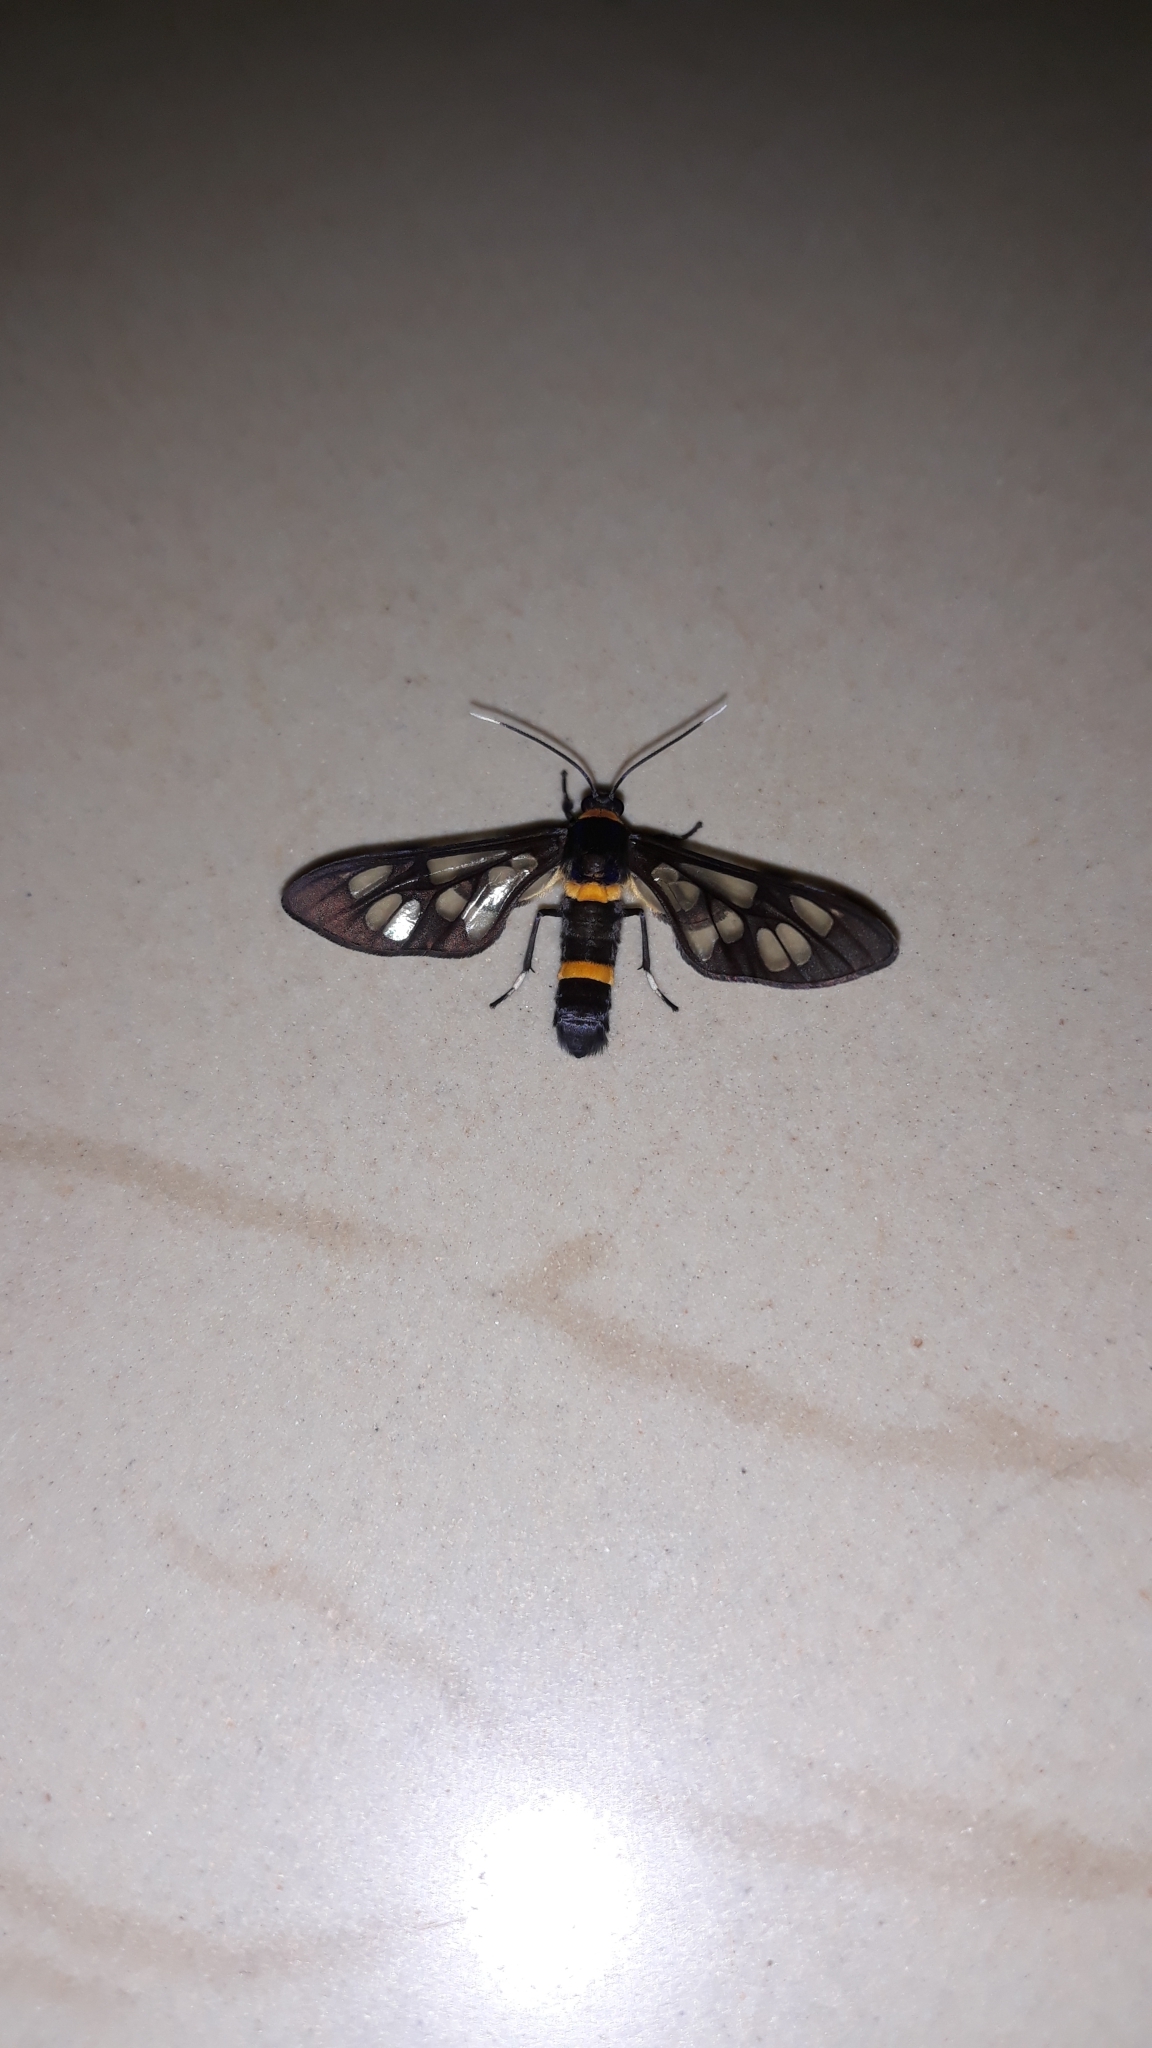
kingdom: Animalia
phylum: Arthropoda
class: Insecta
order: Lepidoptera
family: Erebidae
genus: Syntomoides
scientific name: Syntomoides imaon
